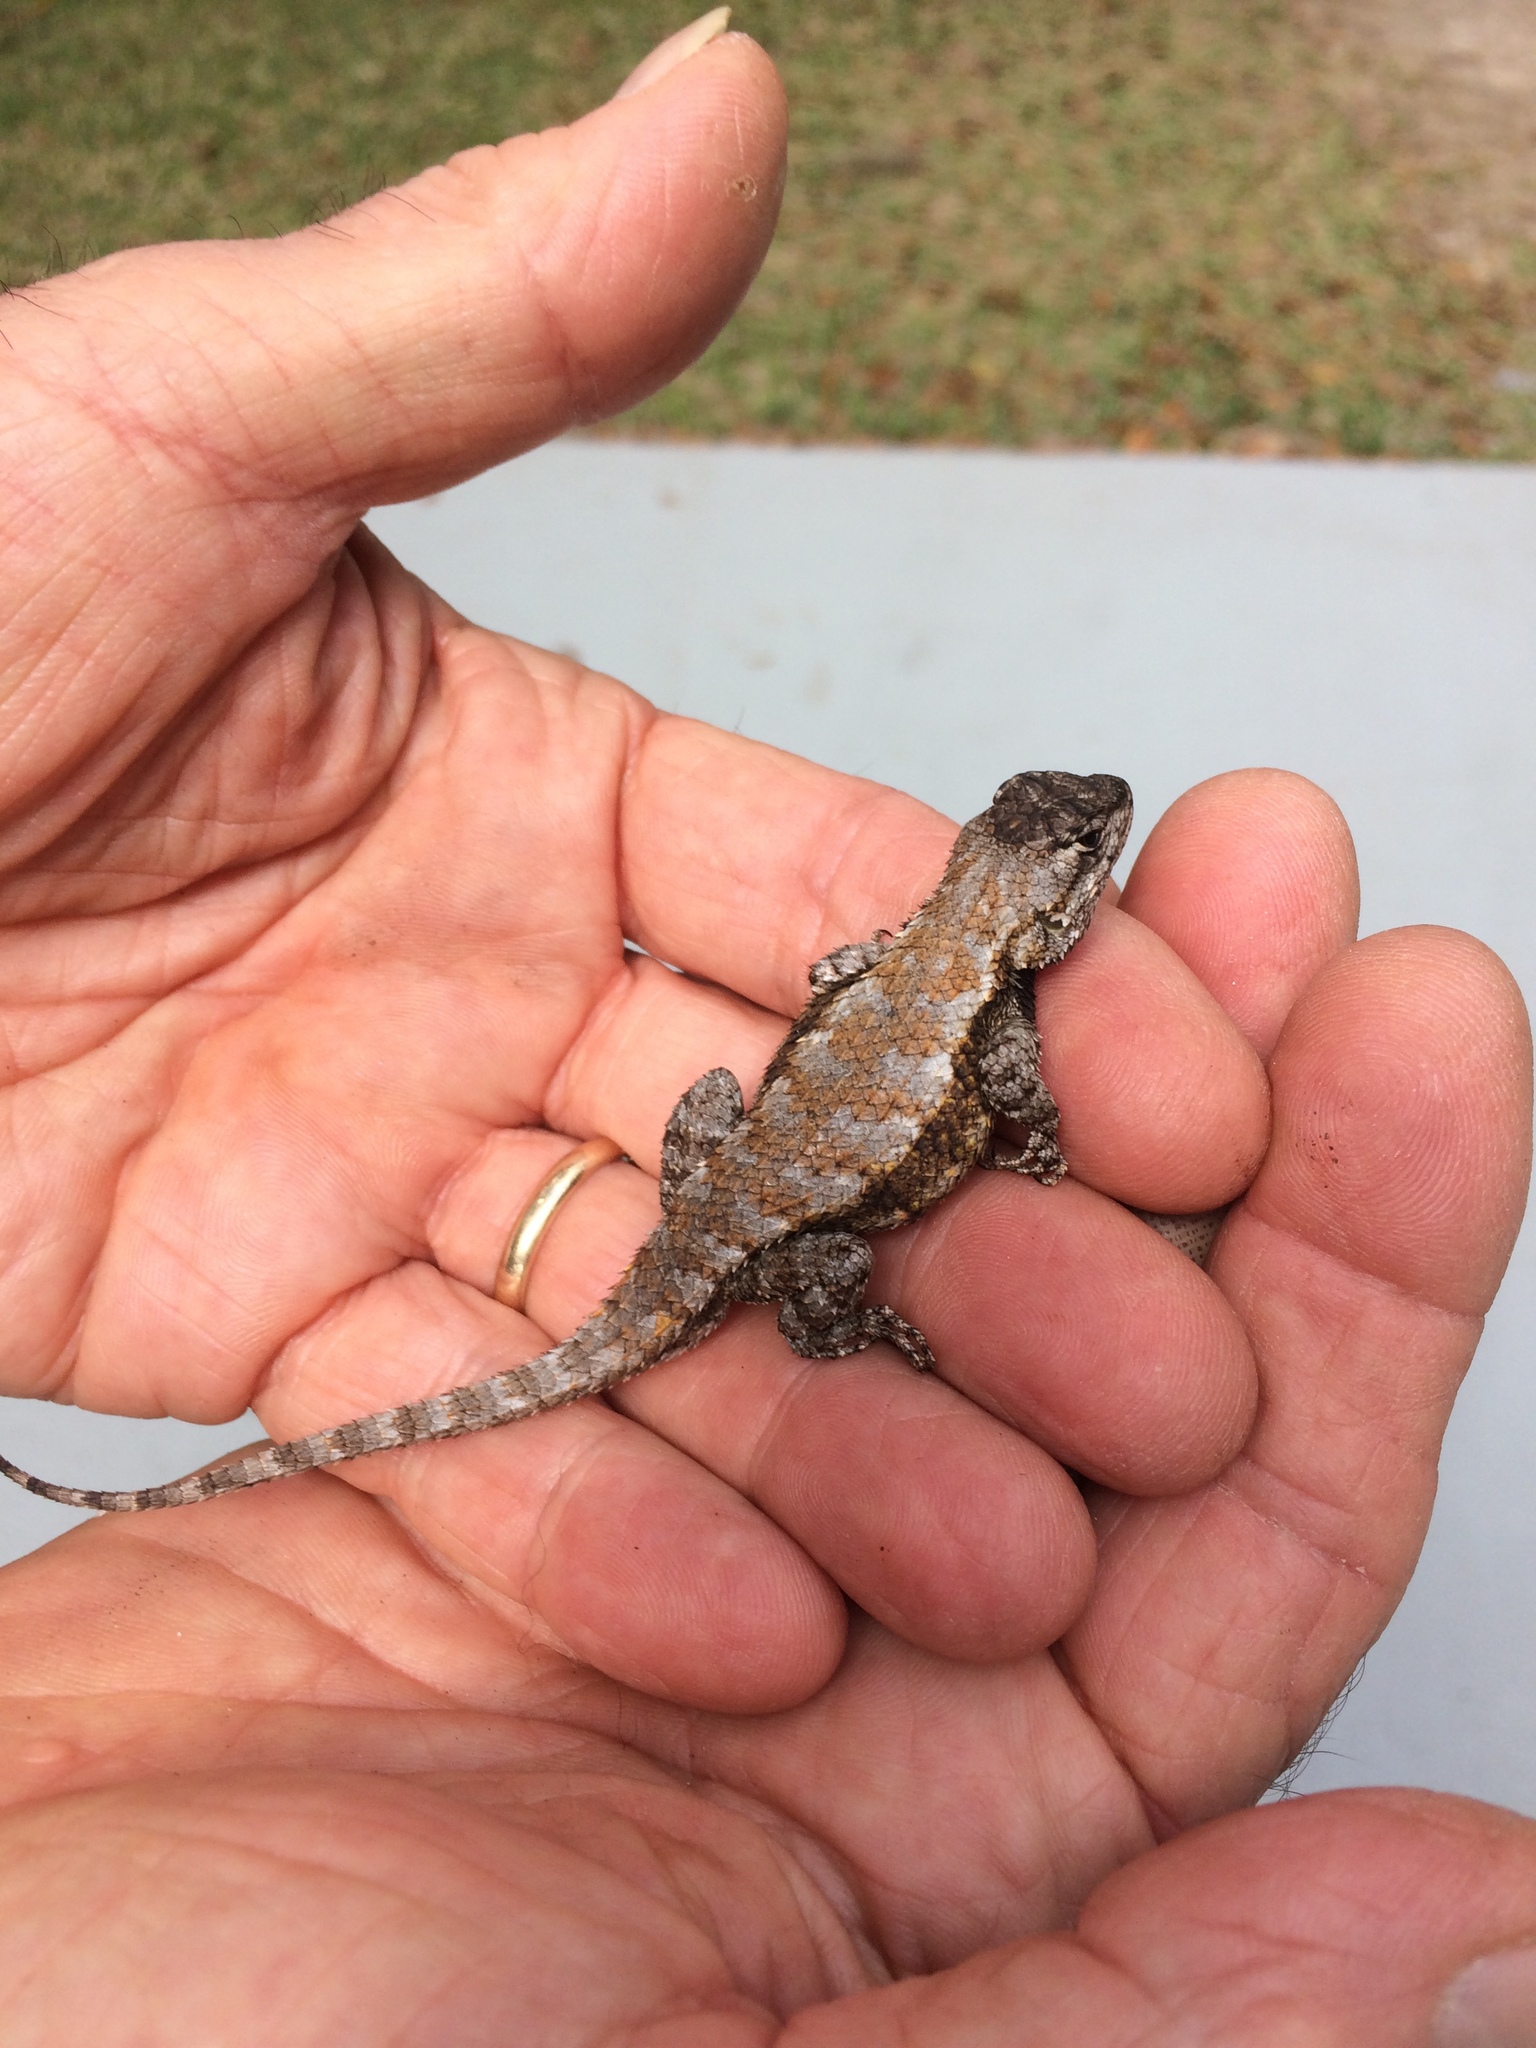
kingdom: Animalia
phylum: Chordata
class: Squamata
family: Phrynosomatidae
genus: Sceloporus
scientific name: Sceloporus undulatus
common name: Eastern fence lizard
